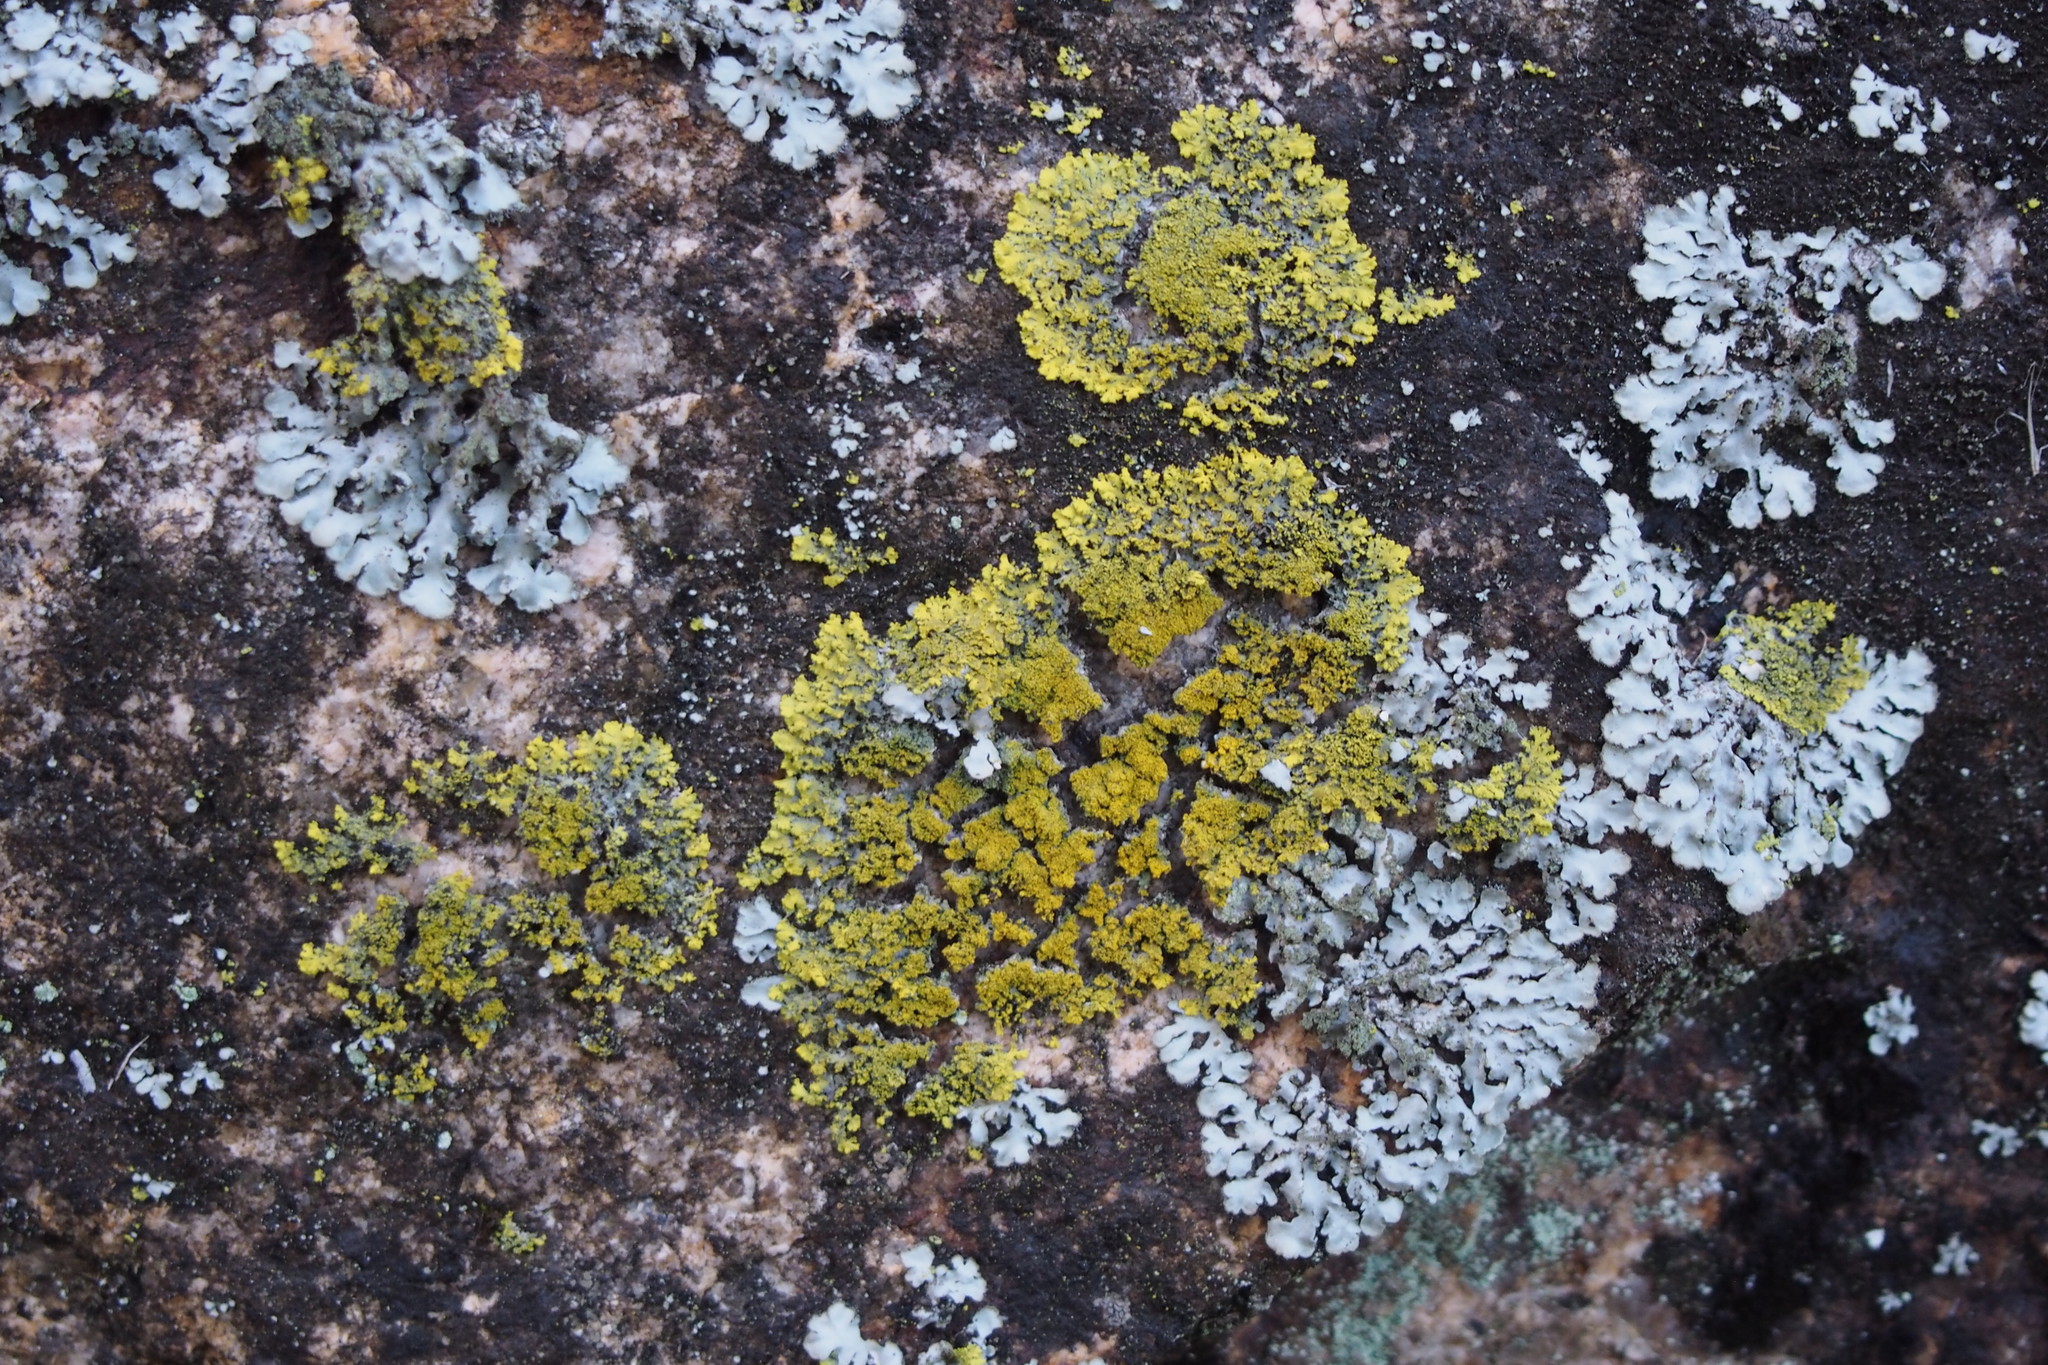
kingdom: Fungi
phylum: Ascomycota
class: Candelariomycetes
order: Candelariales
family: Candelariaceae
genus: Candelaria
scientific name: Candelaria concolor
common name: Candleflame lichen
